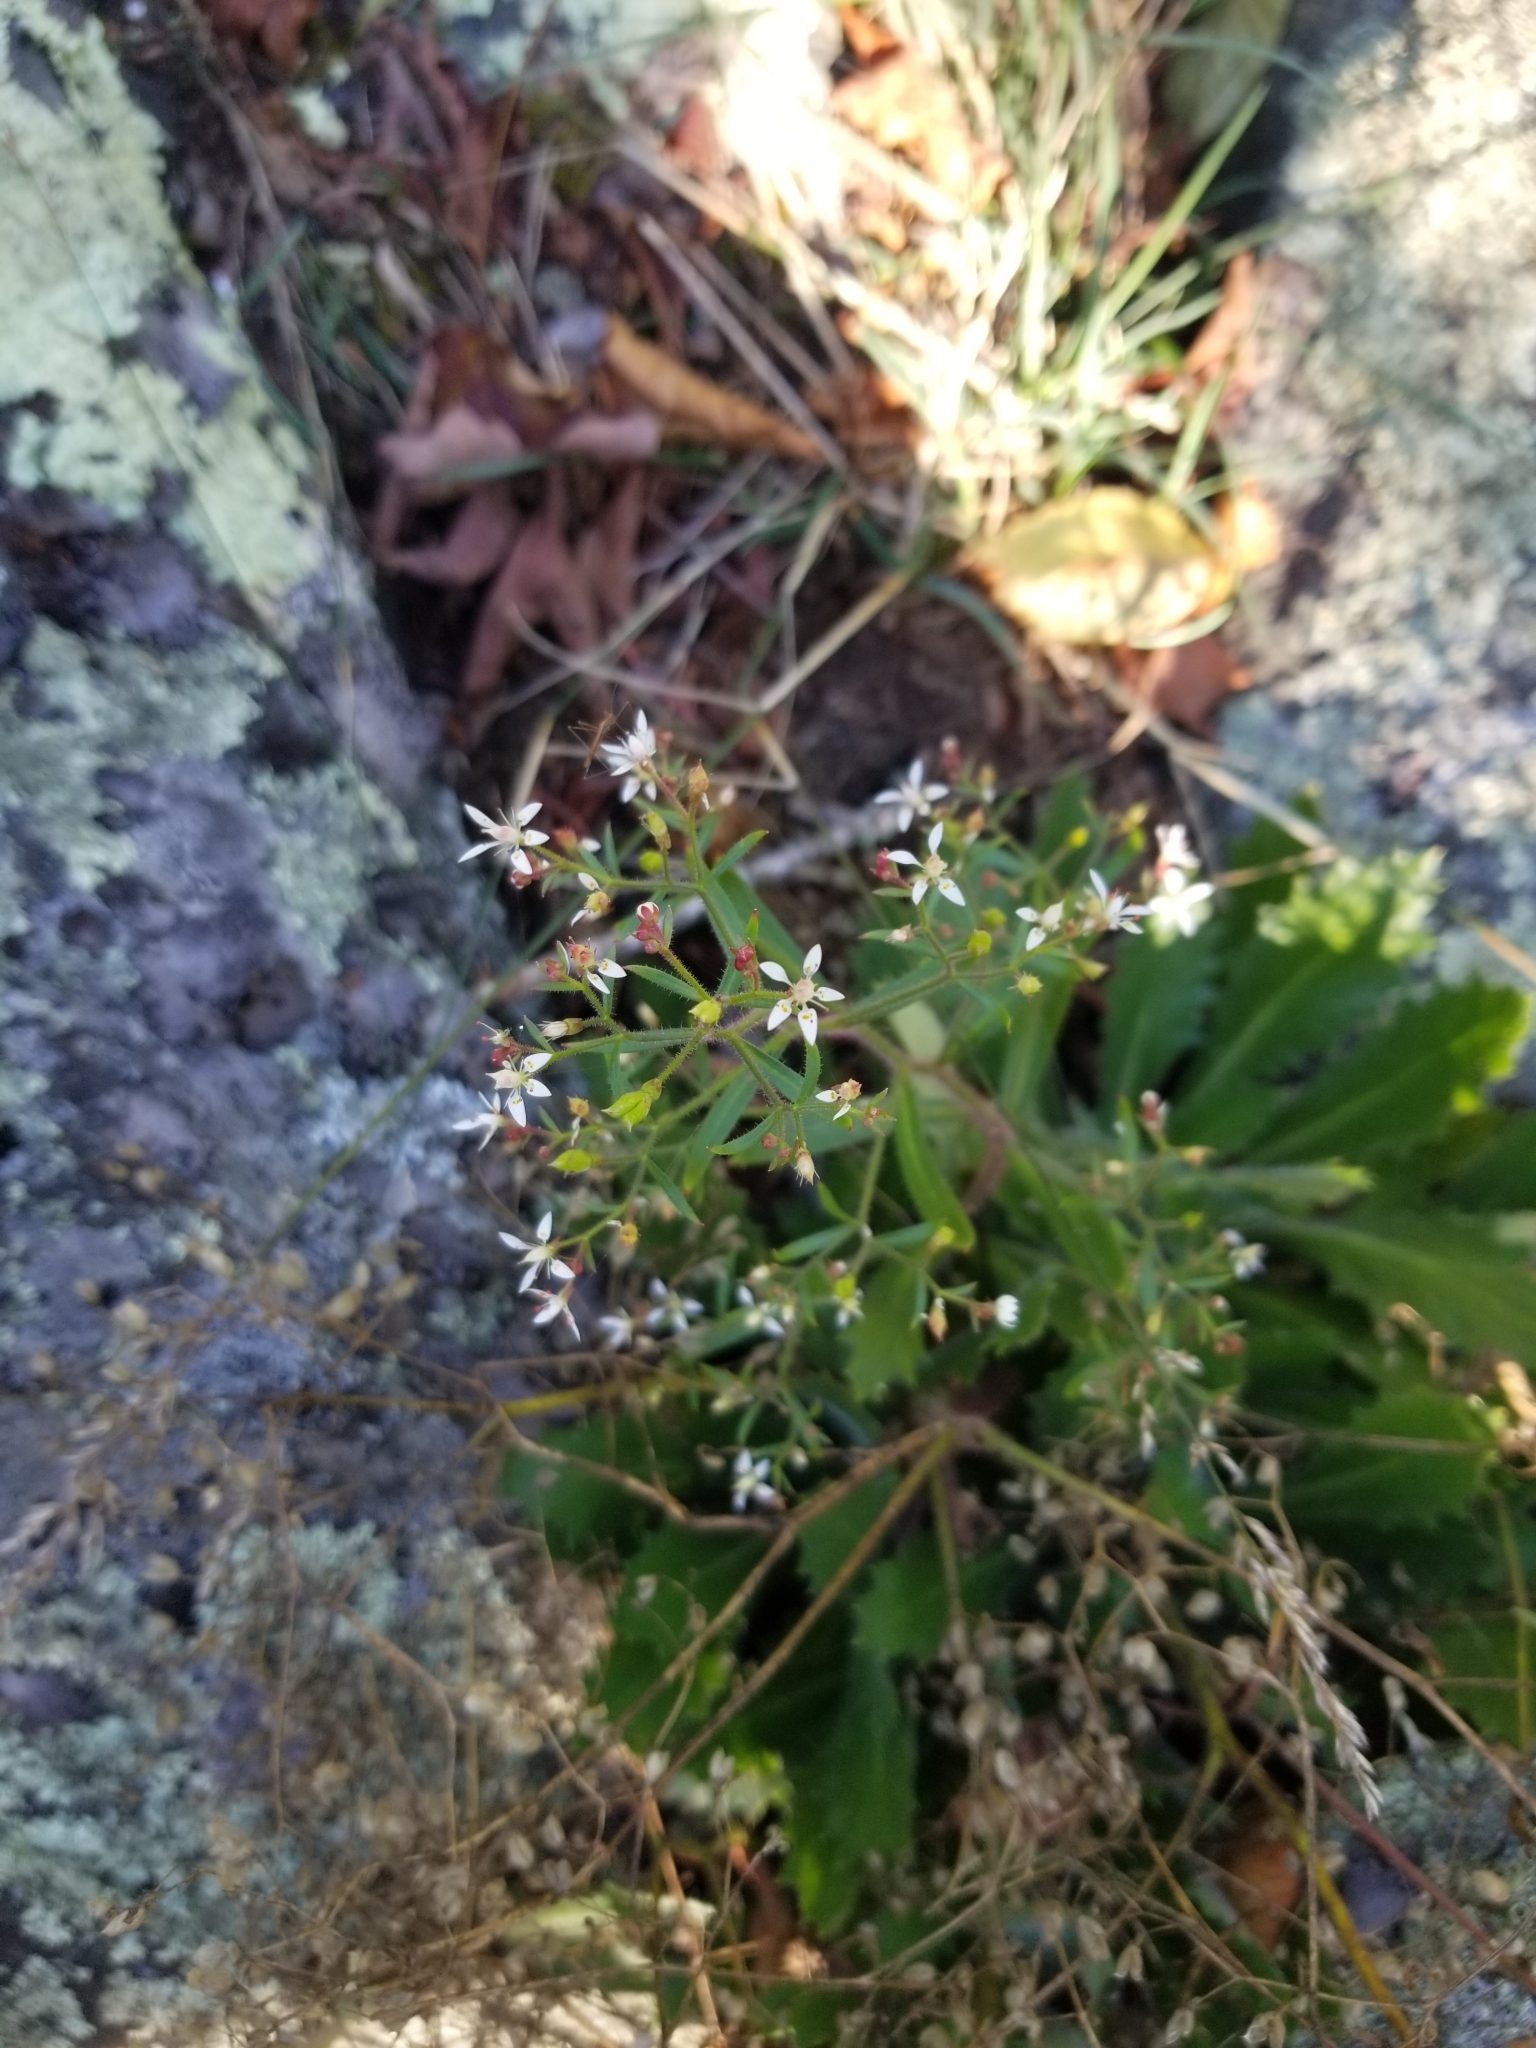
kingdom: Plantae
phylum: Tracheophyta
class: Magnoliopsida
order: Saxifragales
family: Saxifragaceae
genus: Micranthes
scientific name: Micranthes petiolaris
